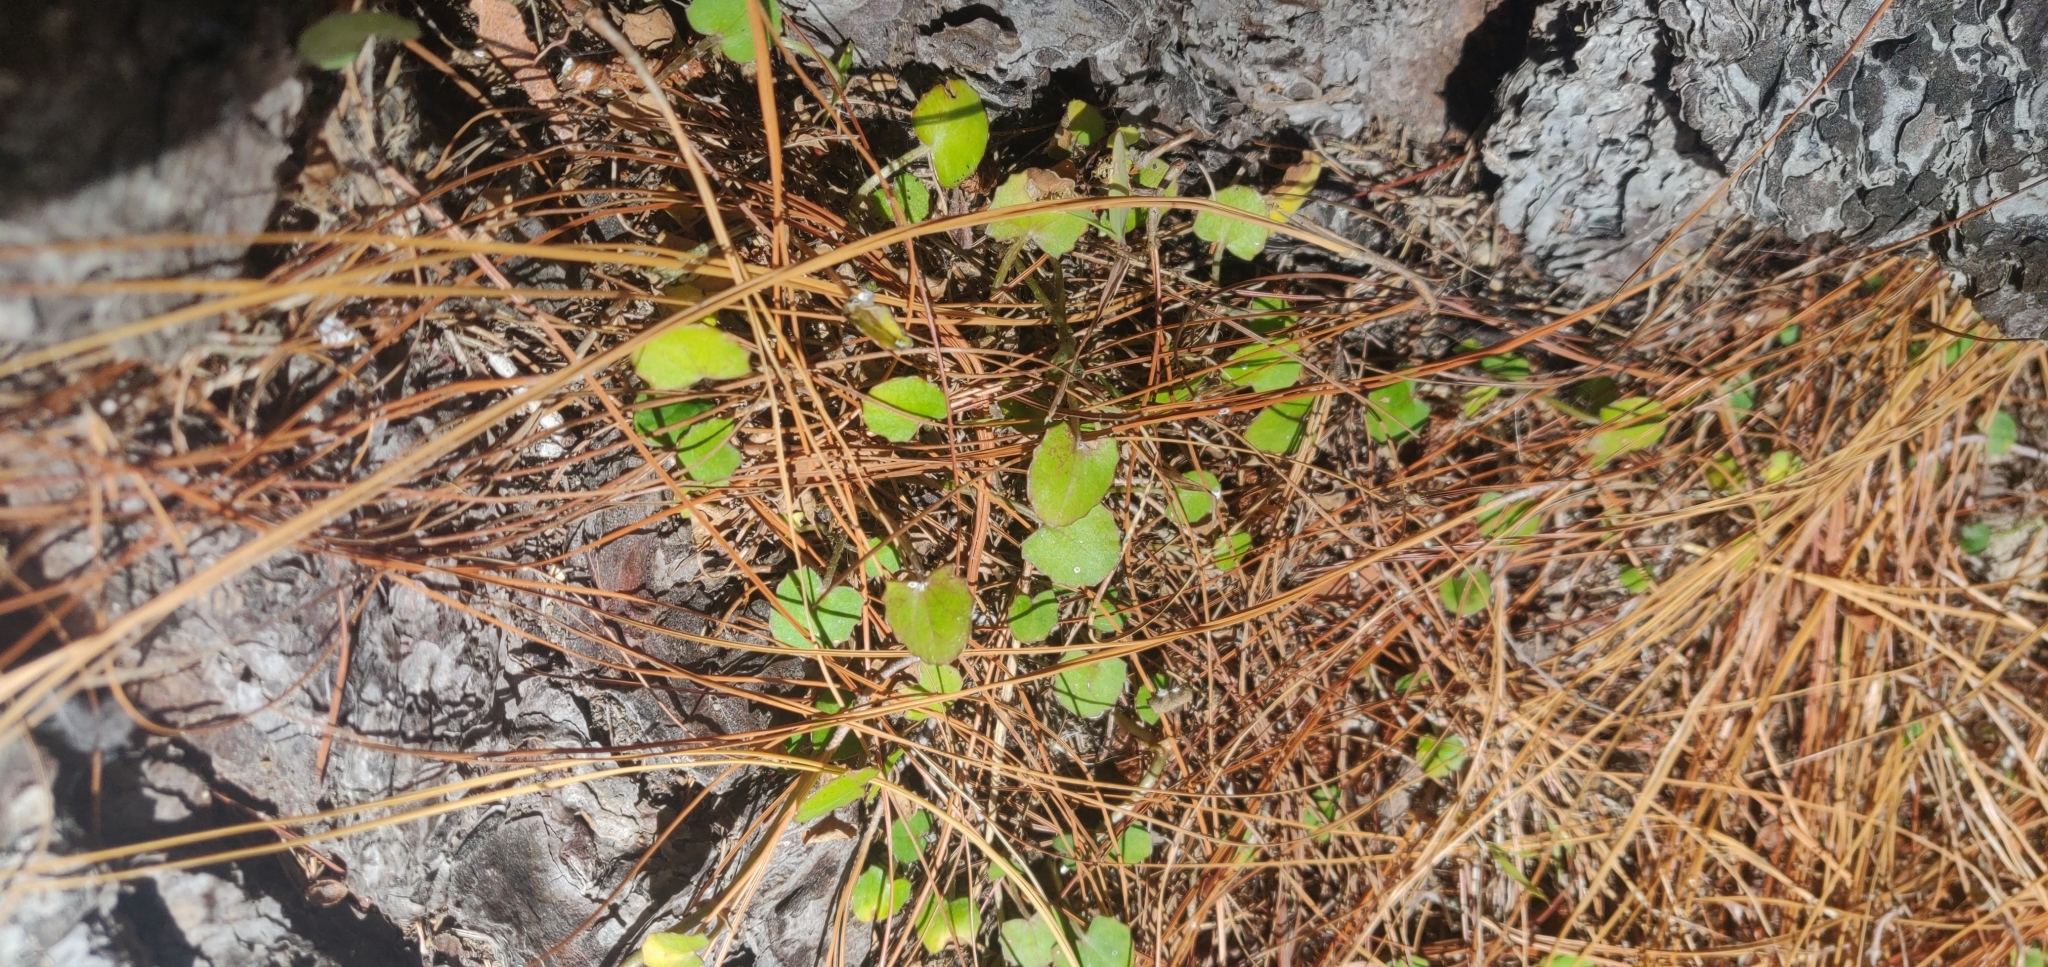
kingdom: Plantae
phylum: Tracheophyta
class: Magnoliopsida
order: Apiales
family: Apiaceae
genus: Centella
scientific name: Centella uniflora
